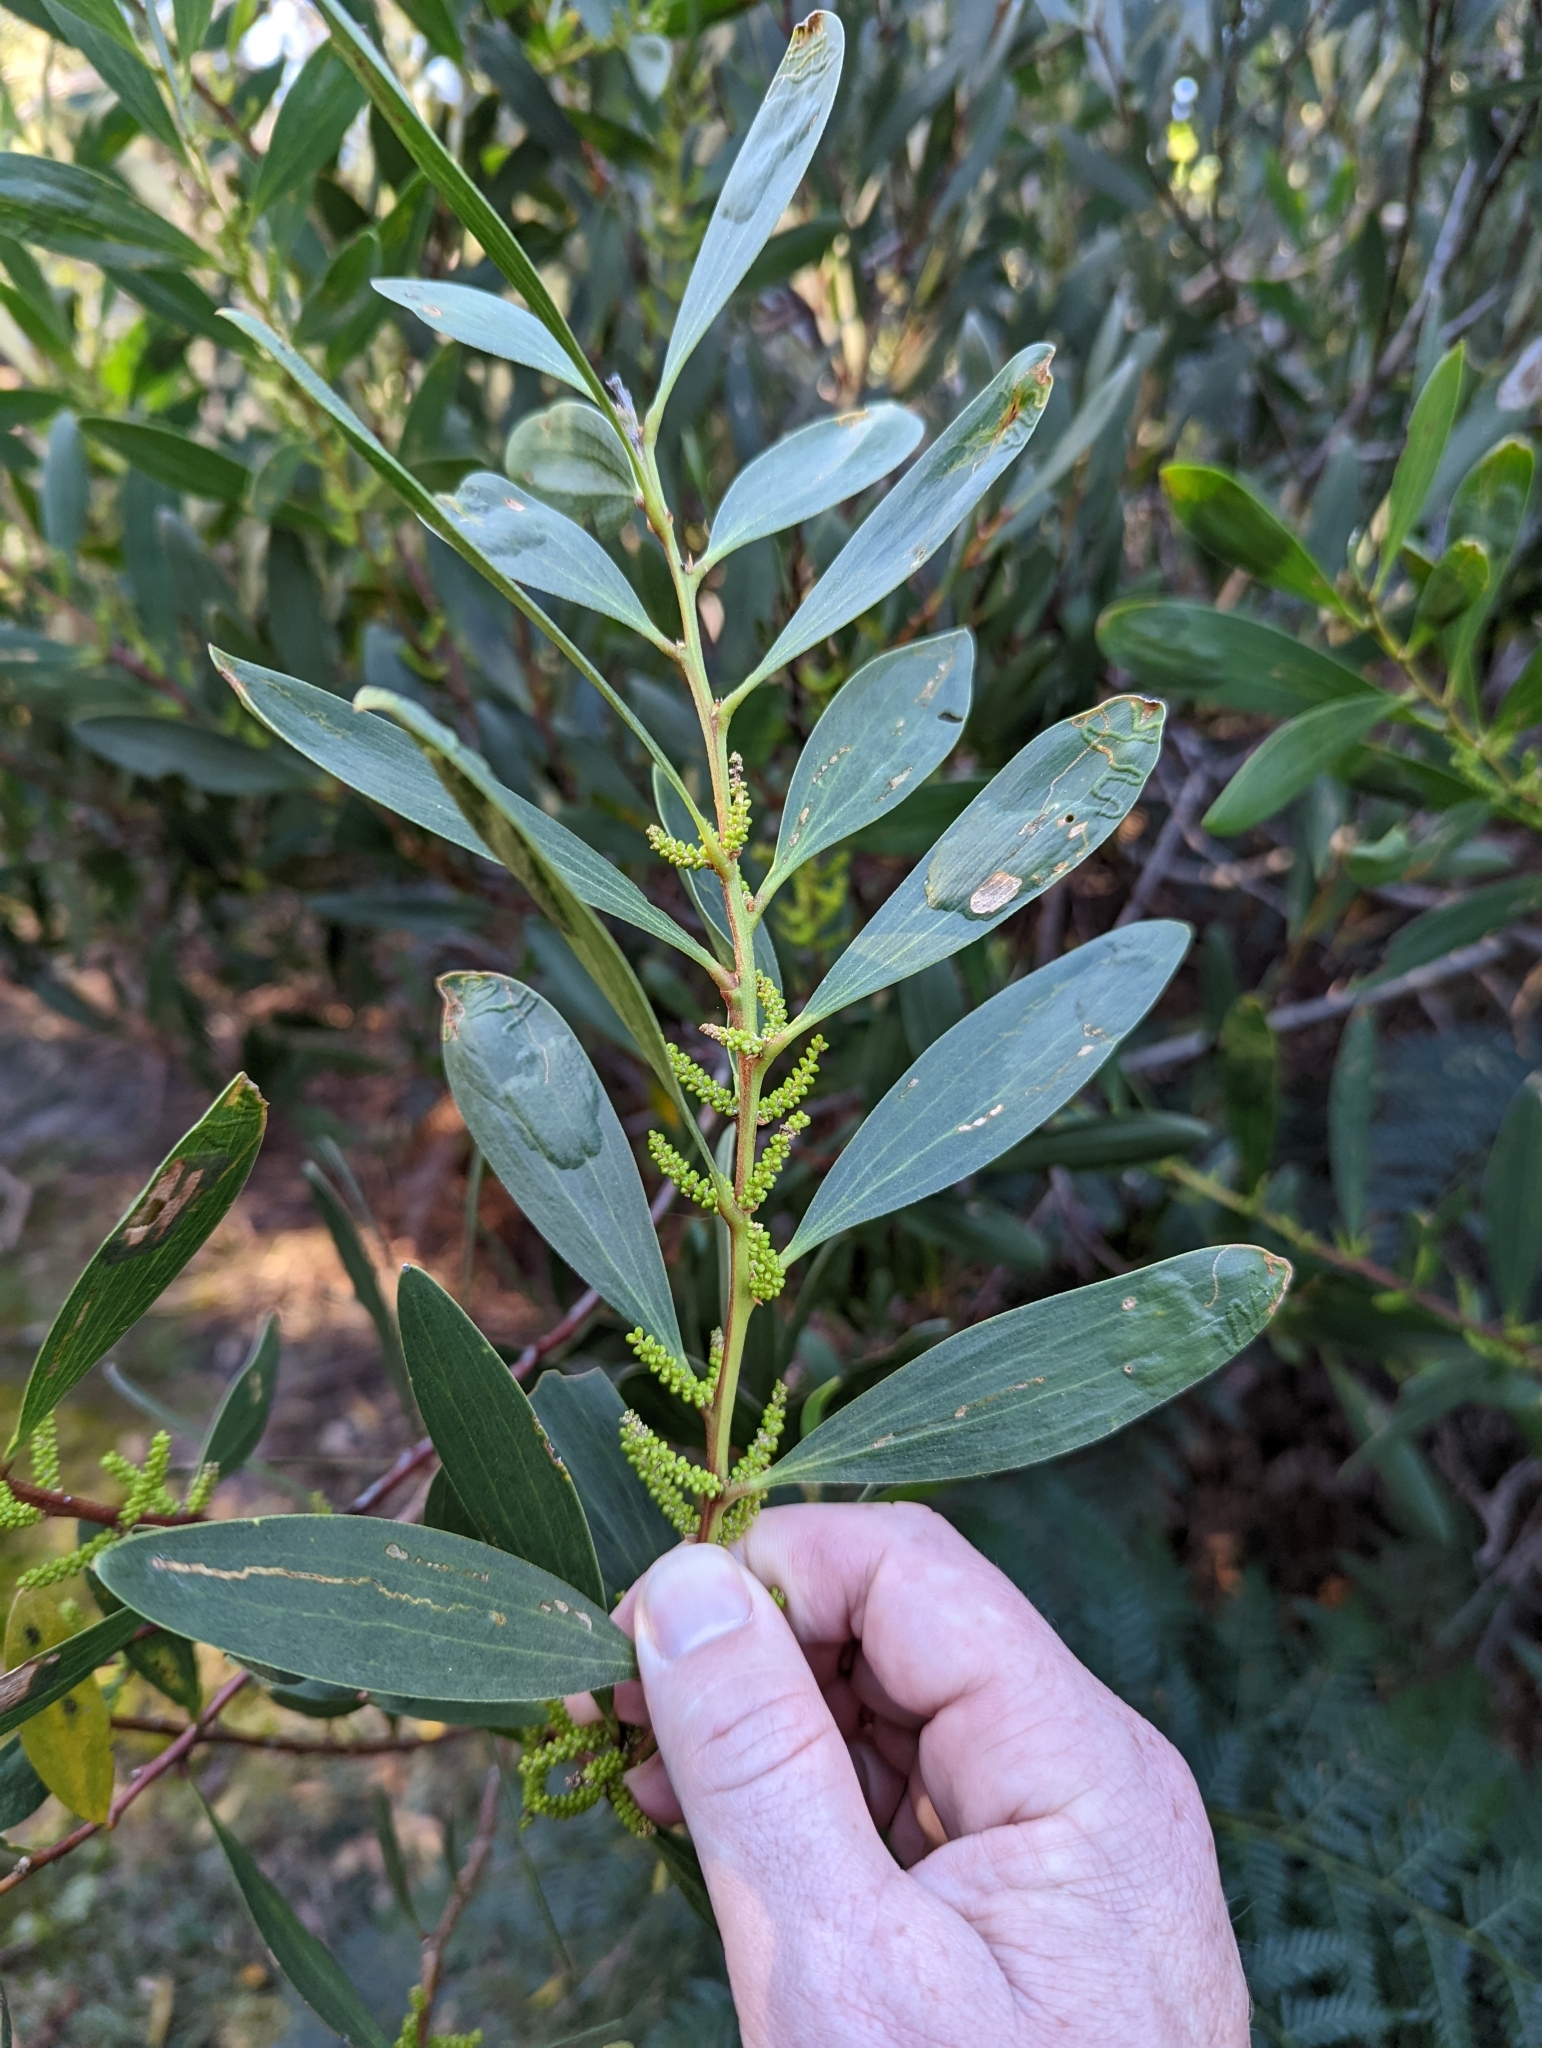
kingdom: Plantae
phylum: Tracheophyta
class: Magnoliopsida
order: Fabales
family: Fabaceae
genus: Acacia
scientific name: Acacia longifolia
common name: Sydney golden wattle
